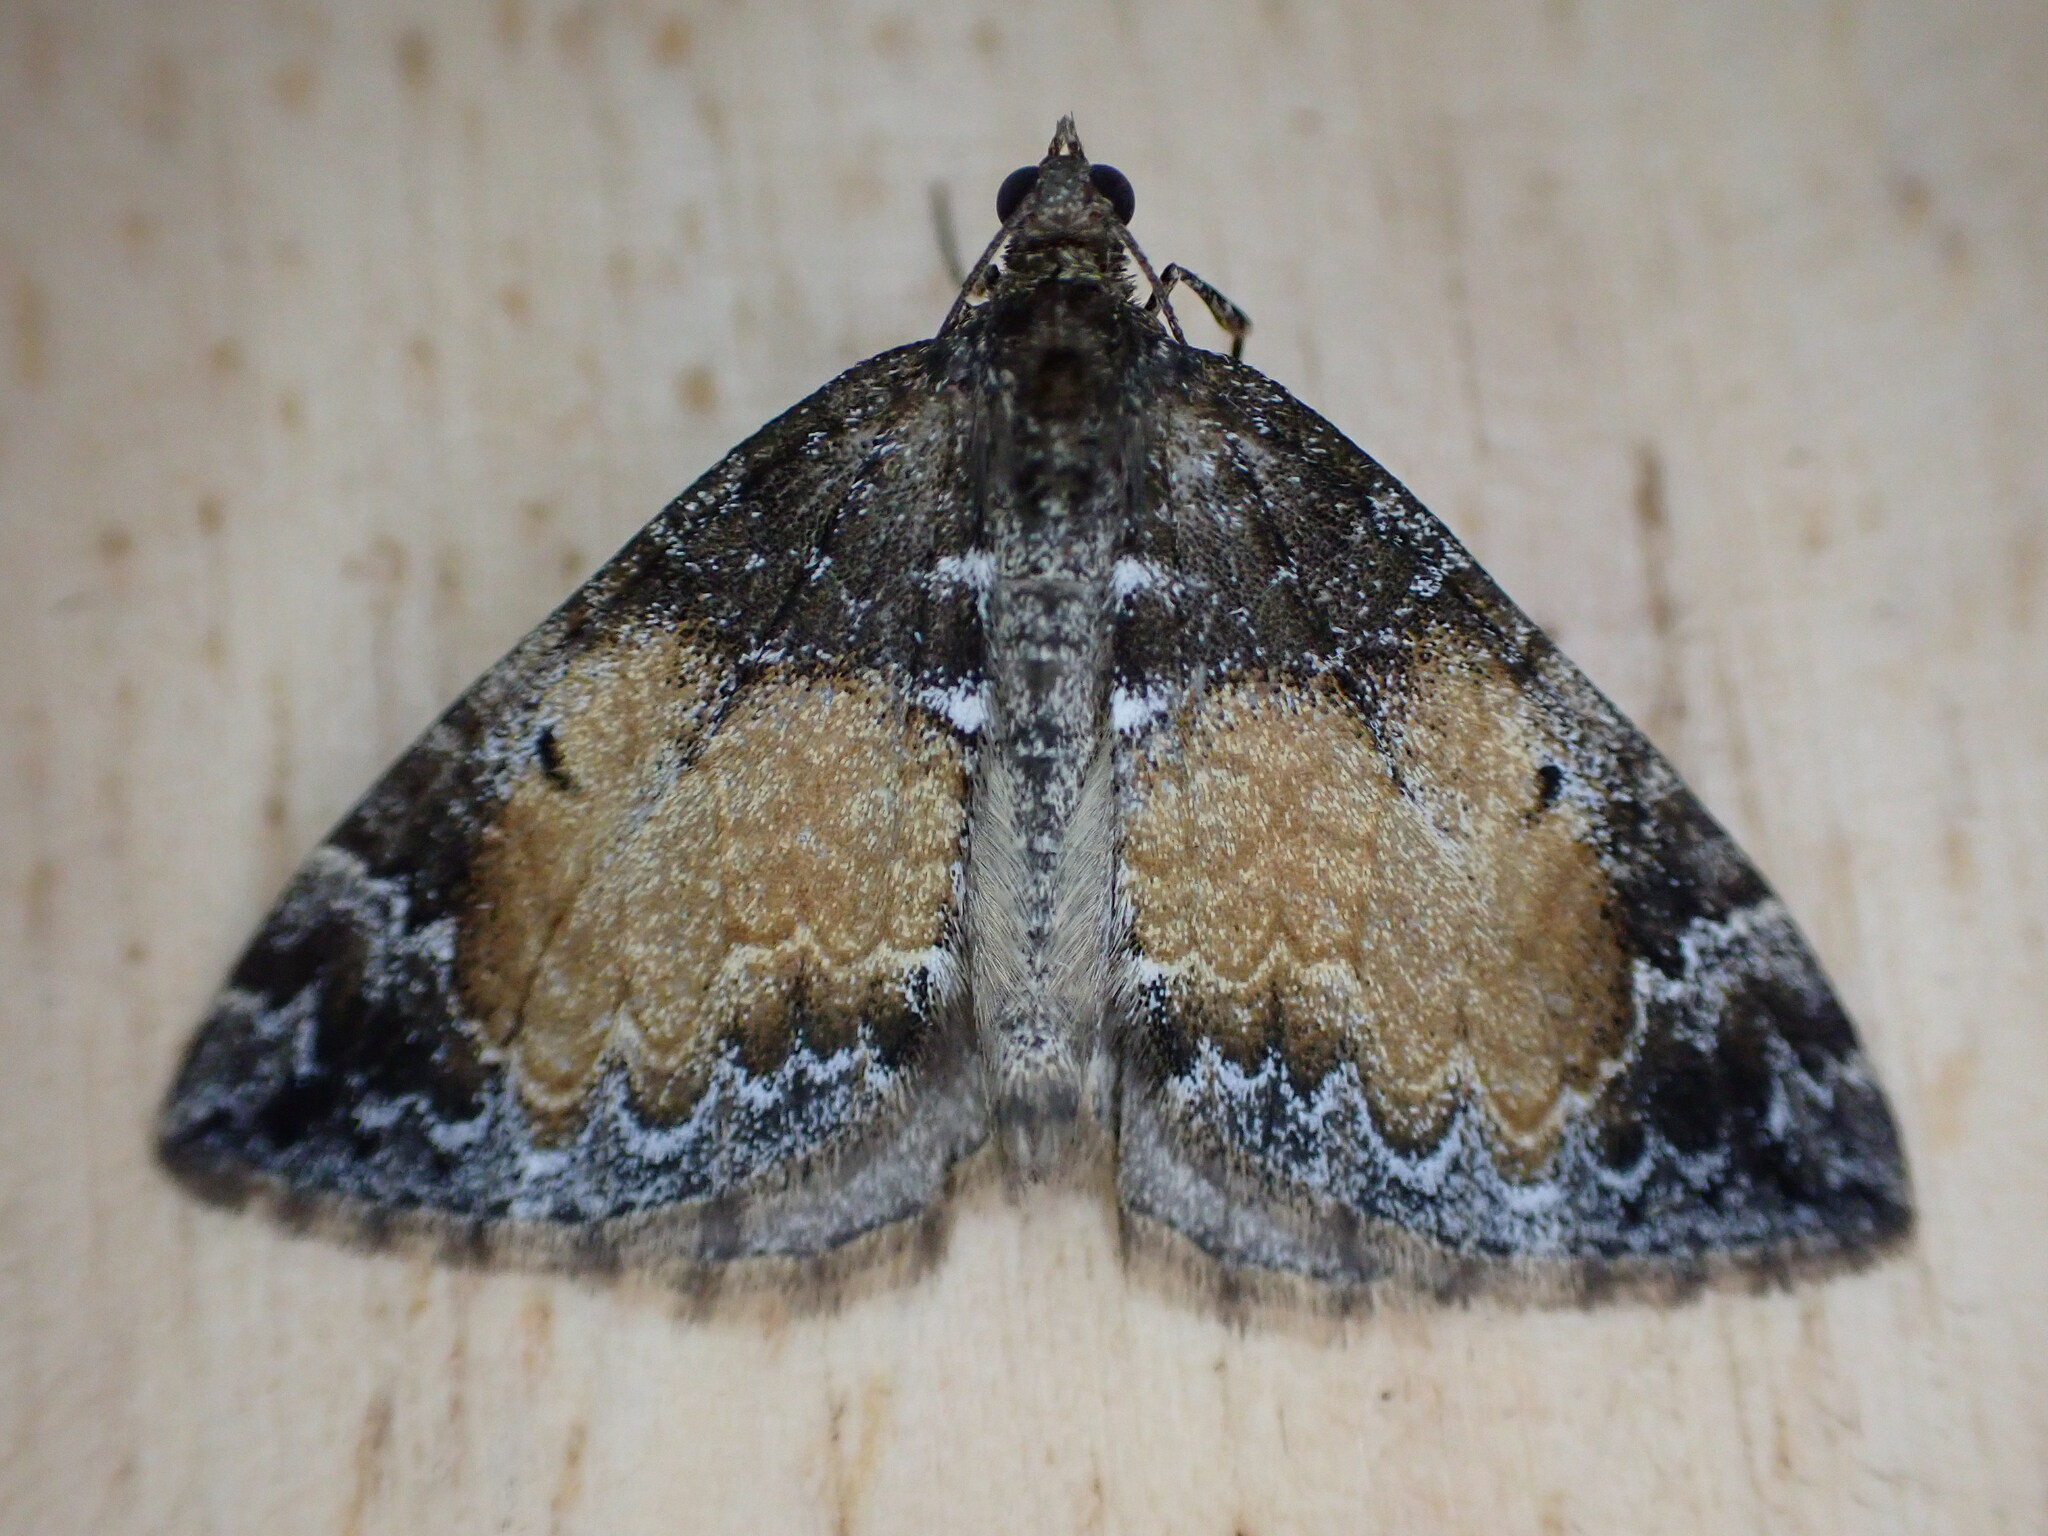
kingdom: Animalia
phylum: Arthropoda
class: Insecta
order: Lepidoptera
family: Geometridae
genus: Dysstroma
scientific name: Dysstroma truncata
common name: Common marbled carpet
